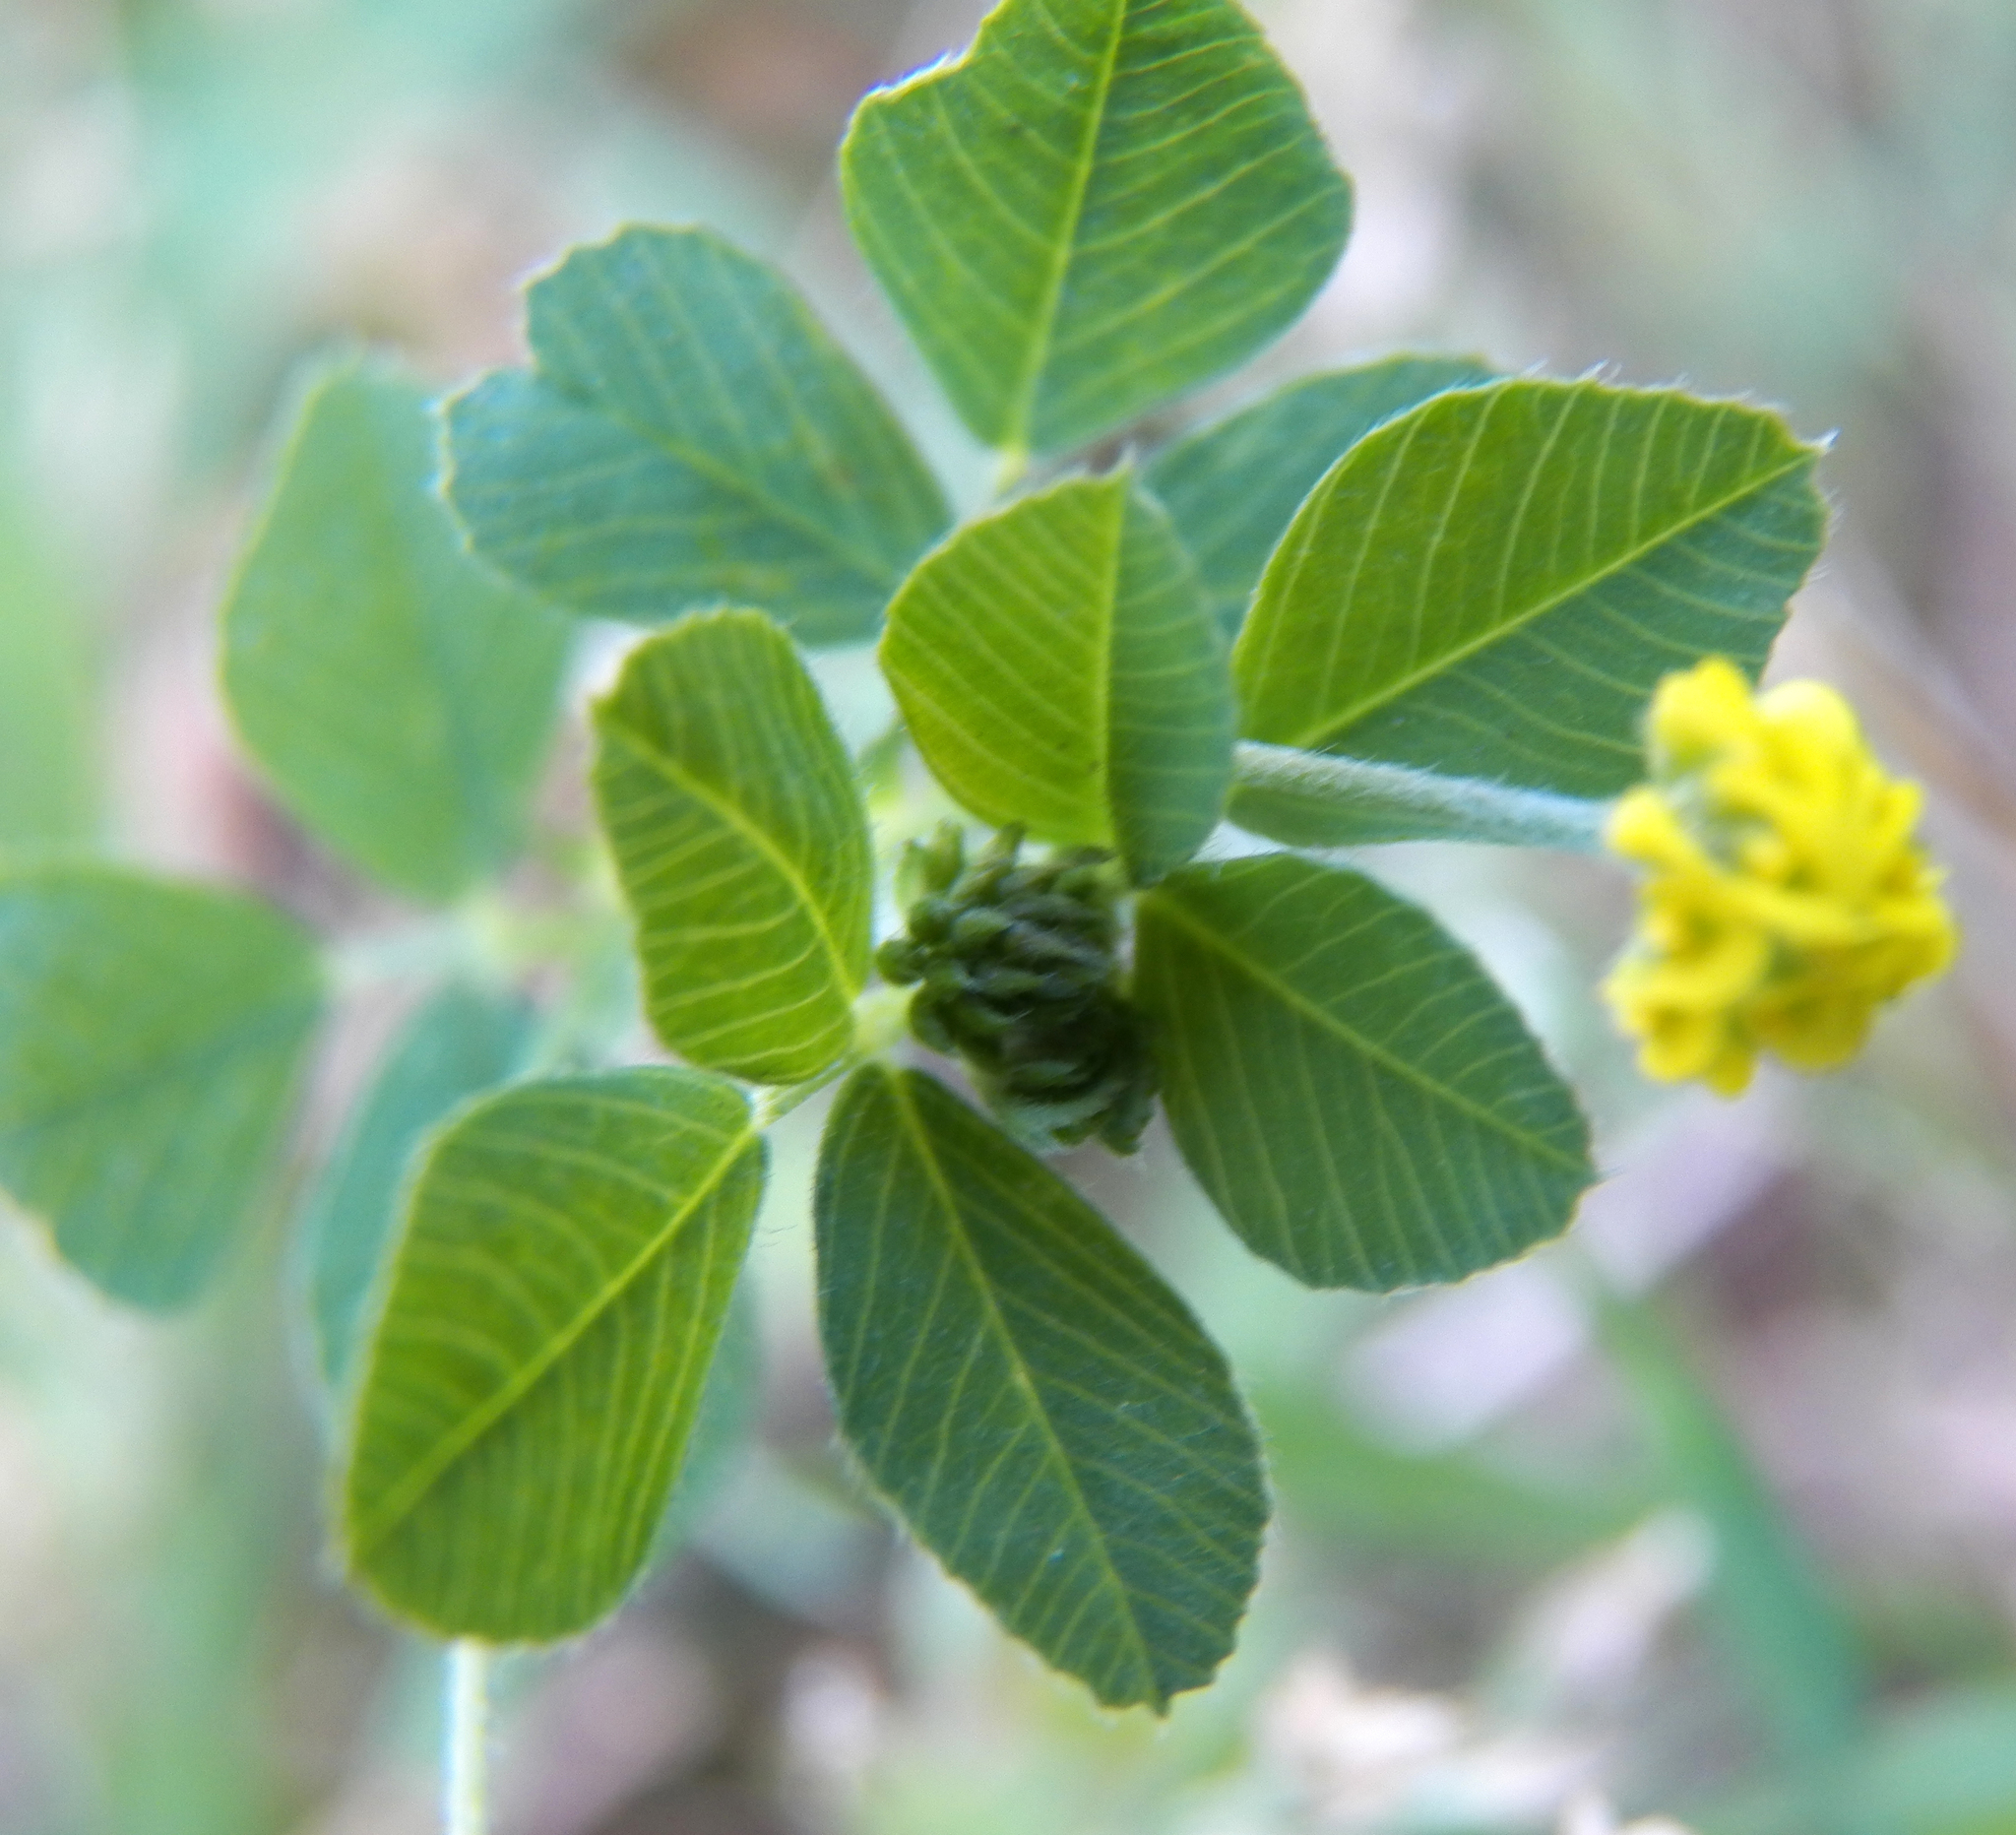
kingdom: Plantae
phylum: Tracheophyta
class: Magnoliopsida
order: Fabales
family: Fabaceae
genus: Medicago
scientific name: Medicago lupulina
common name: Black medick
